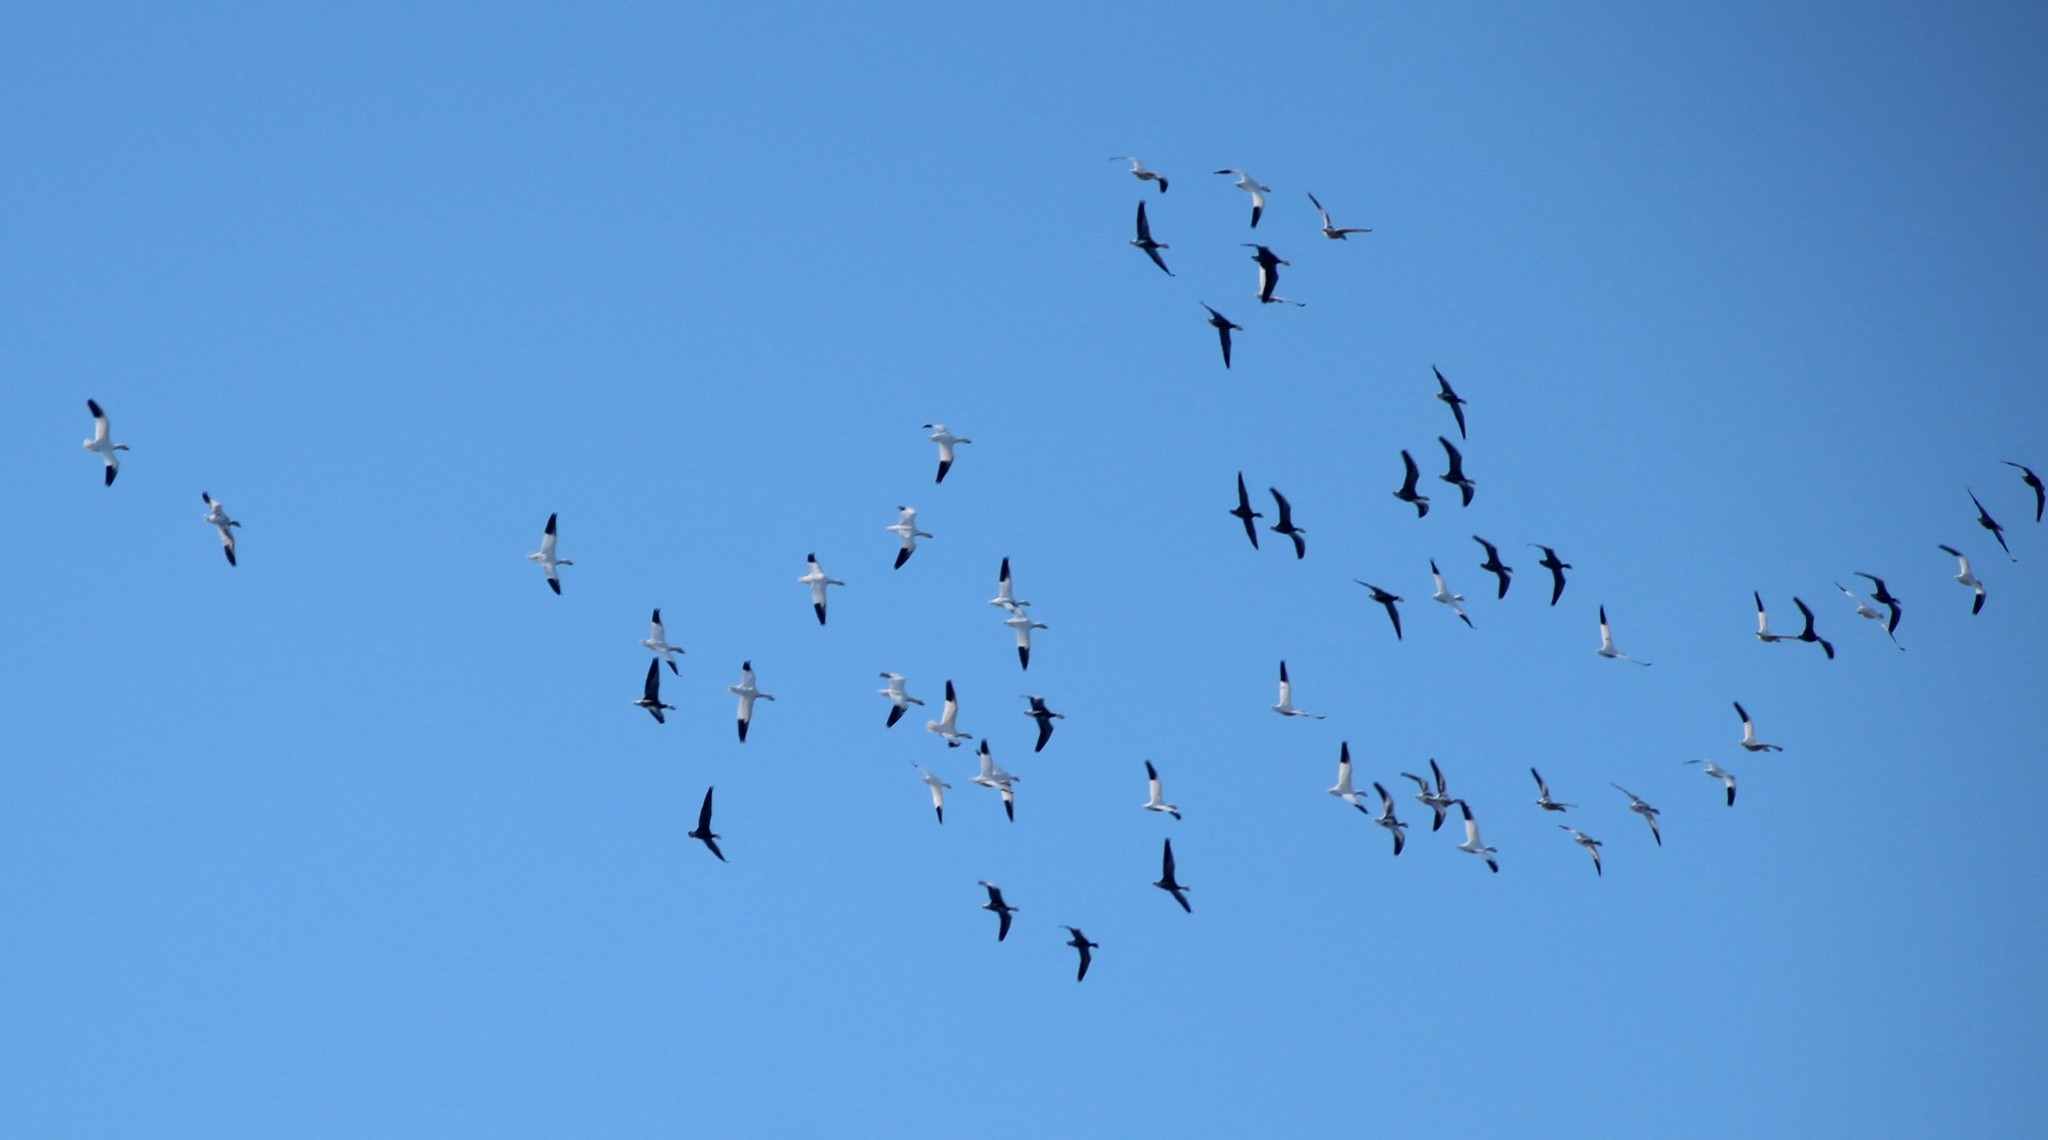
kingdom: Animalia
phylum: Chordata
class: Aves
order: Anseriformes
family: Anatidae
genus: Anser
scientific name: Anser caerulescens
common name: Snow goose
